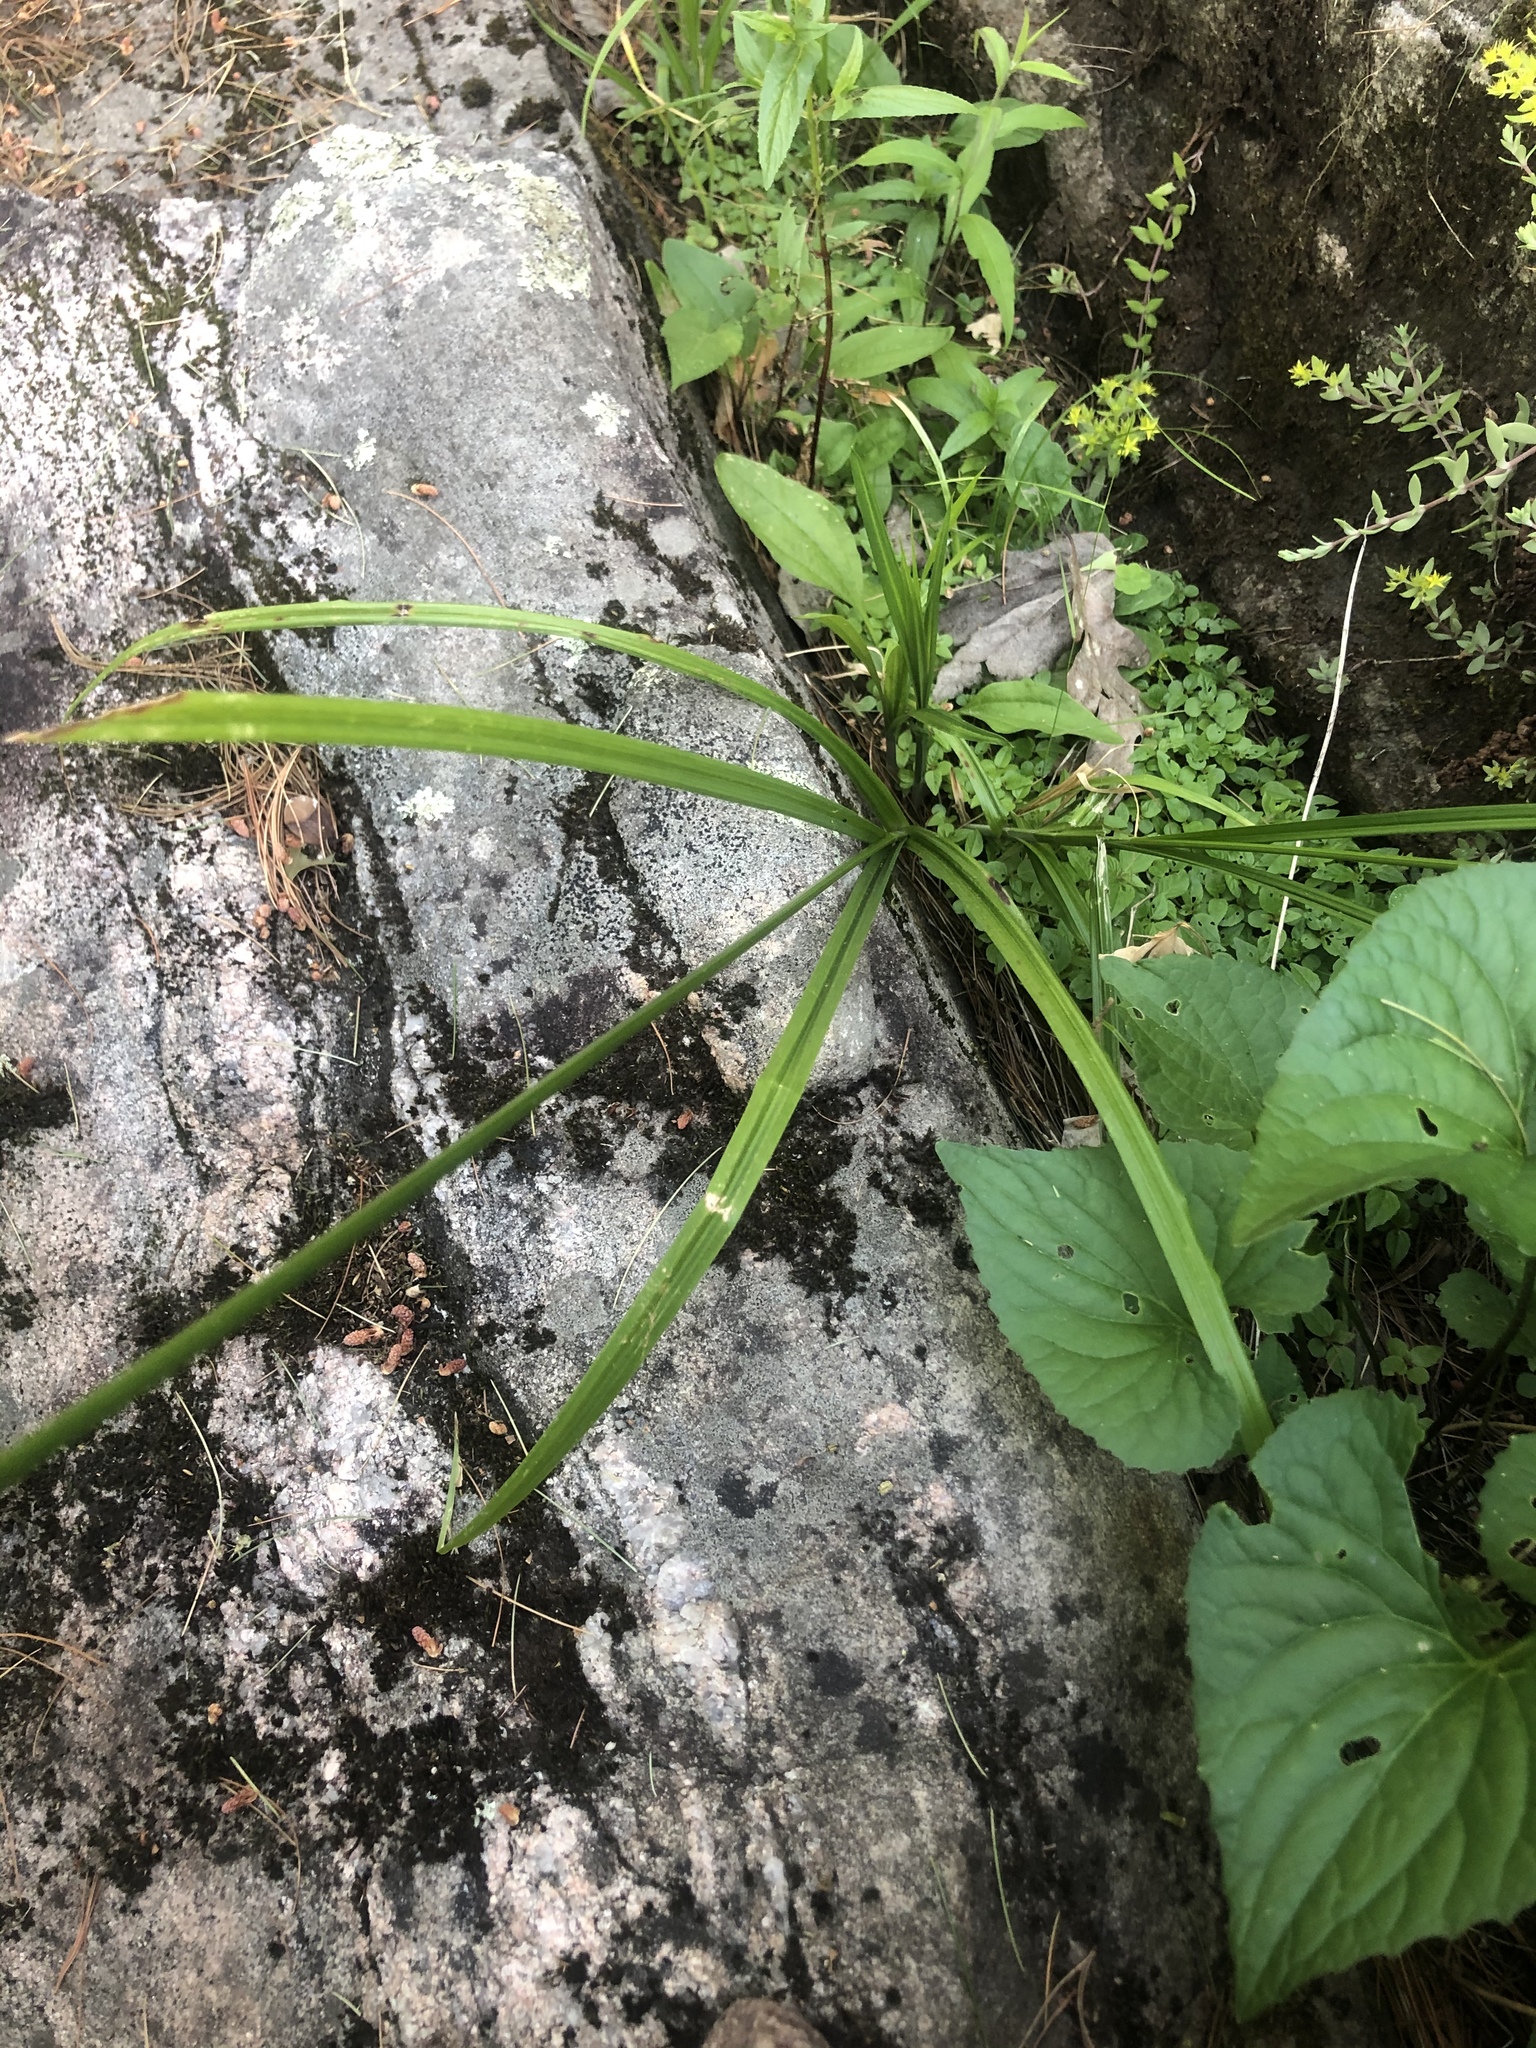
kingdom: Plantae
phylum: Tracheophyta
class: Liliopsida
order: Poales
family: Cyperaceae
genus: Carex
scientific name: Carex sparganioides
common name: Burreed sedge
